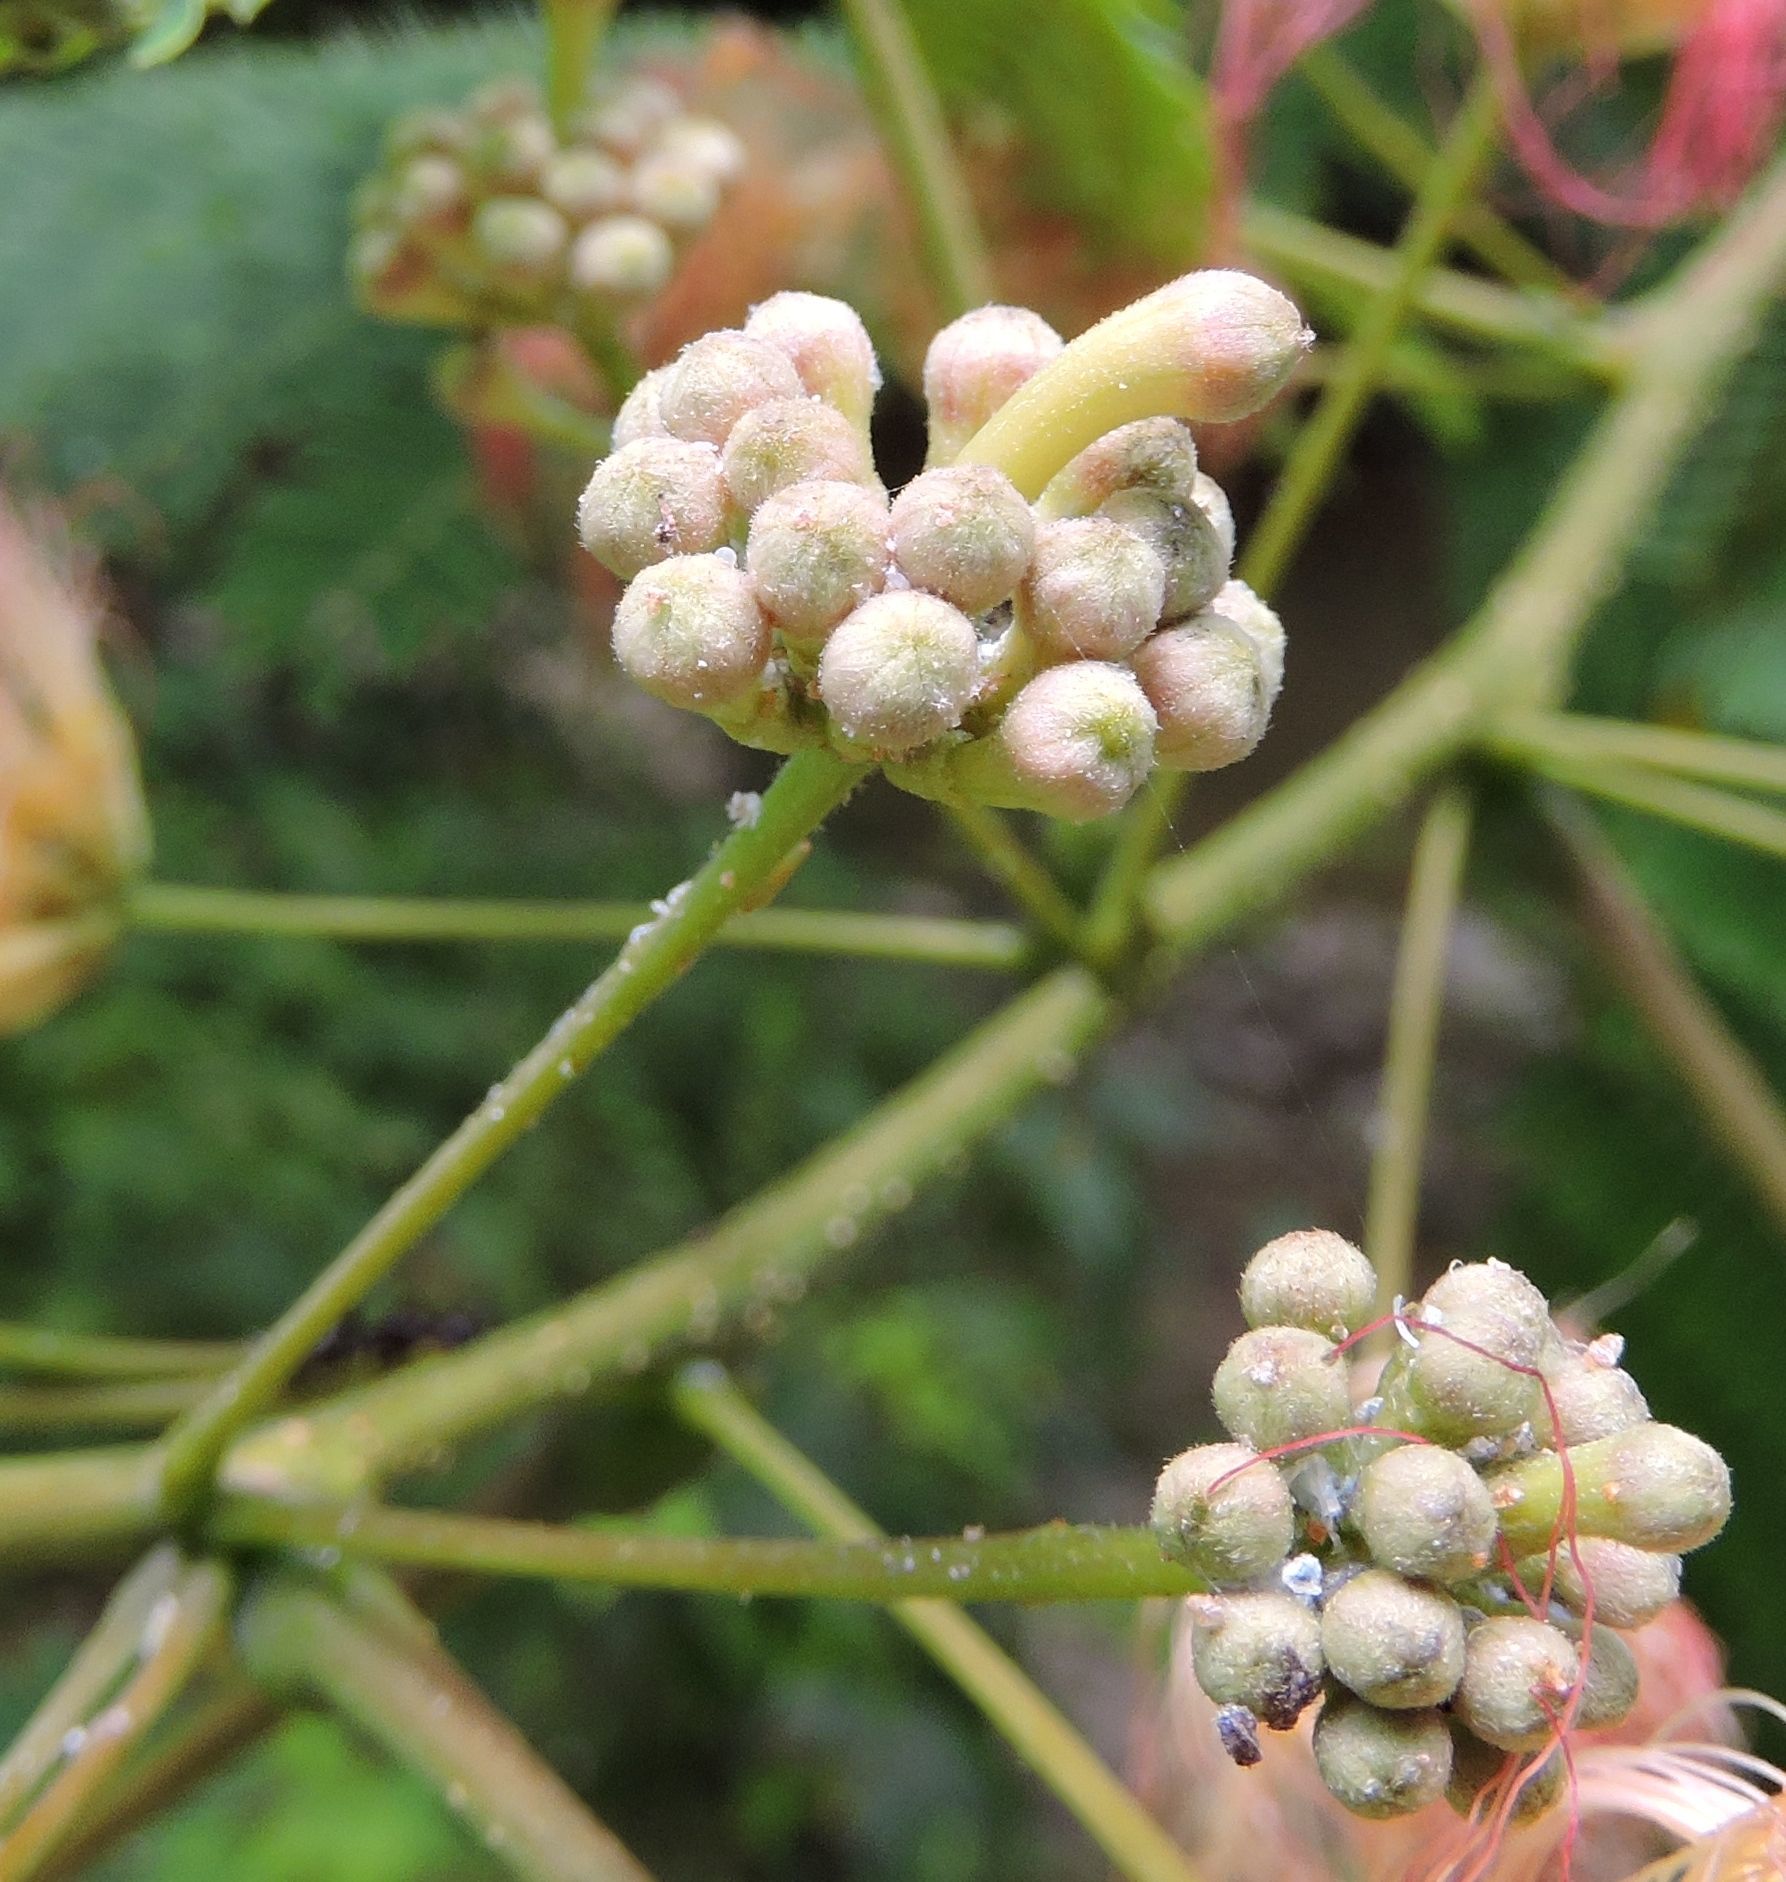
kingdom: Plantae
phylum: Tracheophyta
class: Magnoliopsida
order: Fabales
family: Fabaceae
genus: Albizia
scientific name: Albizia julibrissin
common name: Silktree
